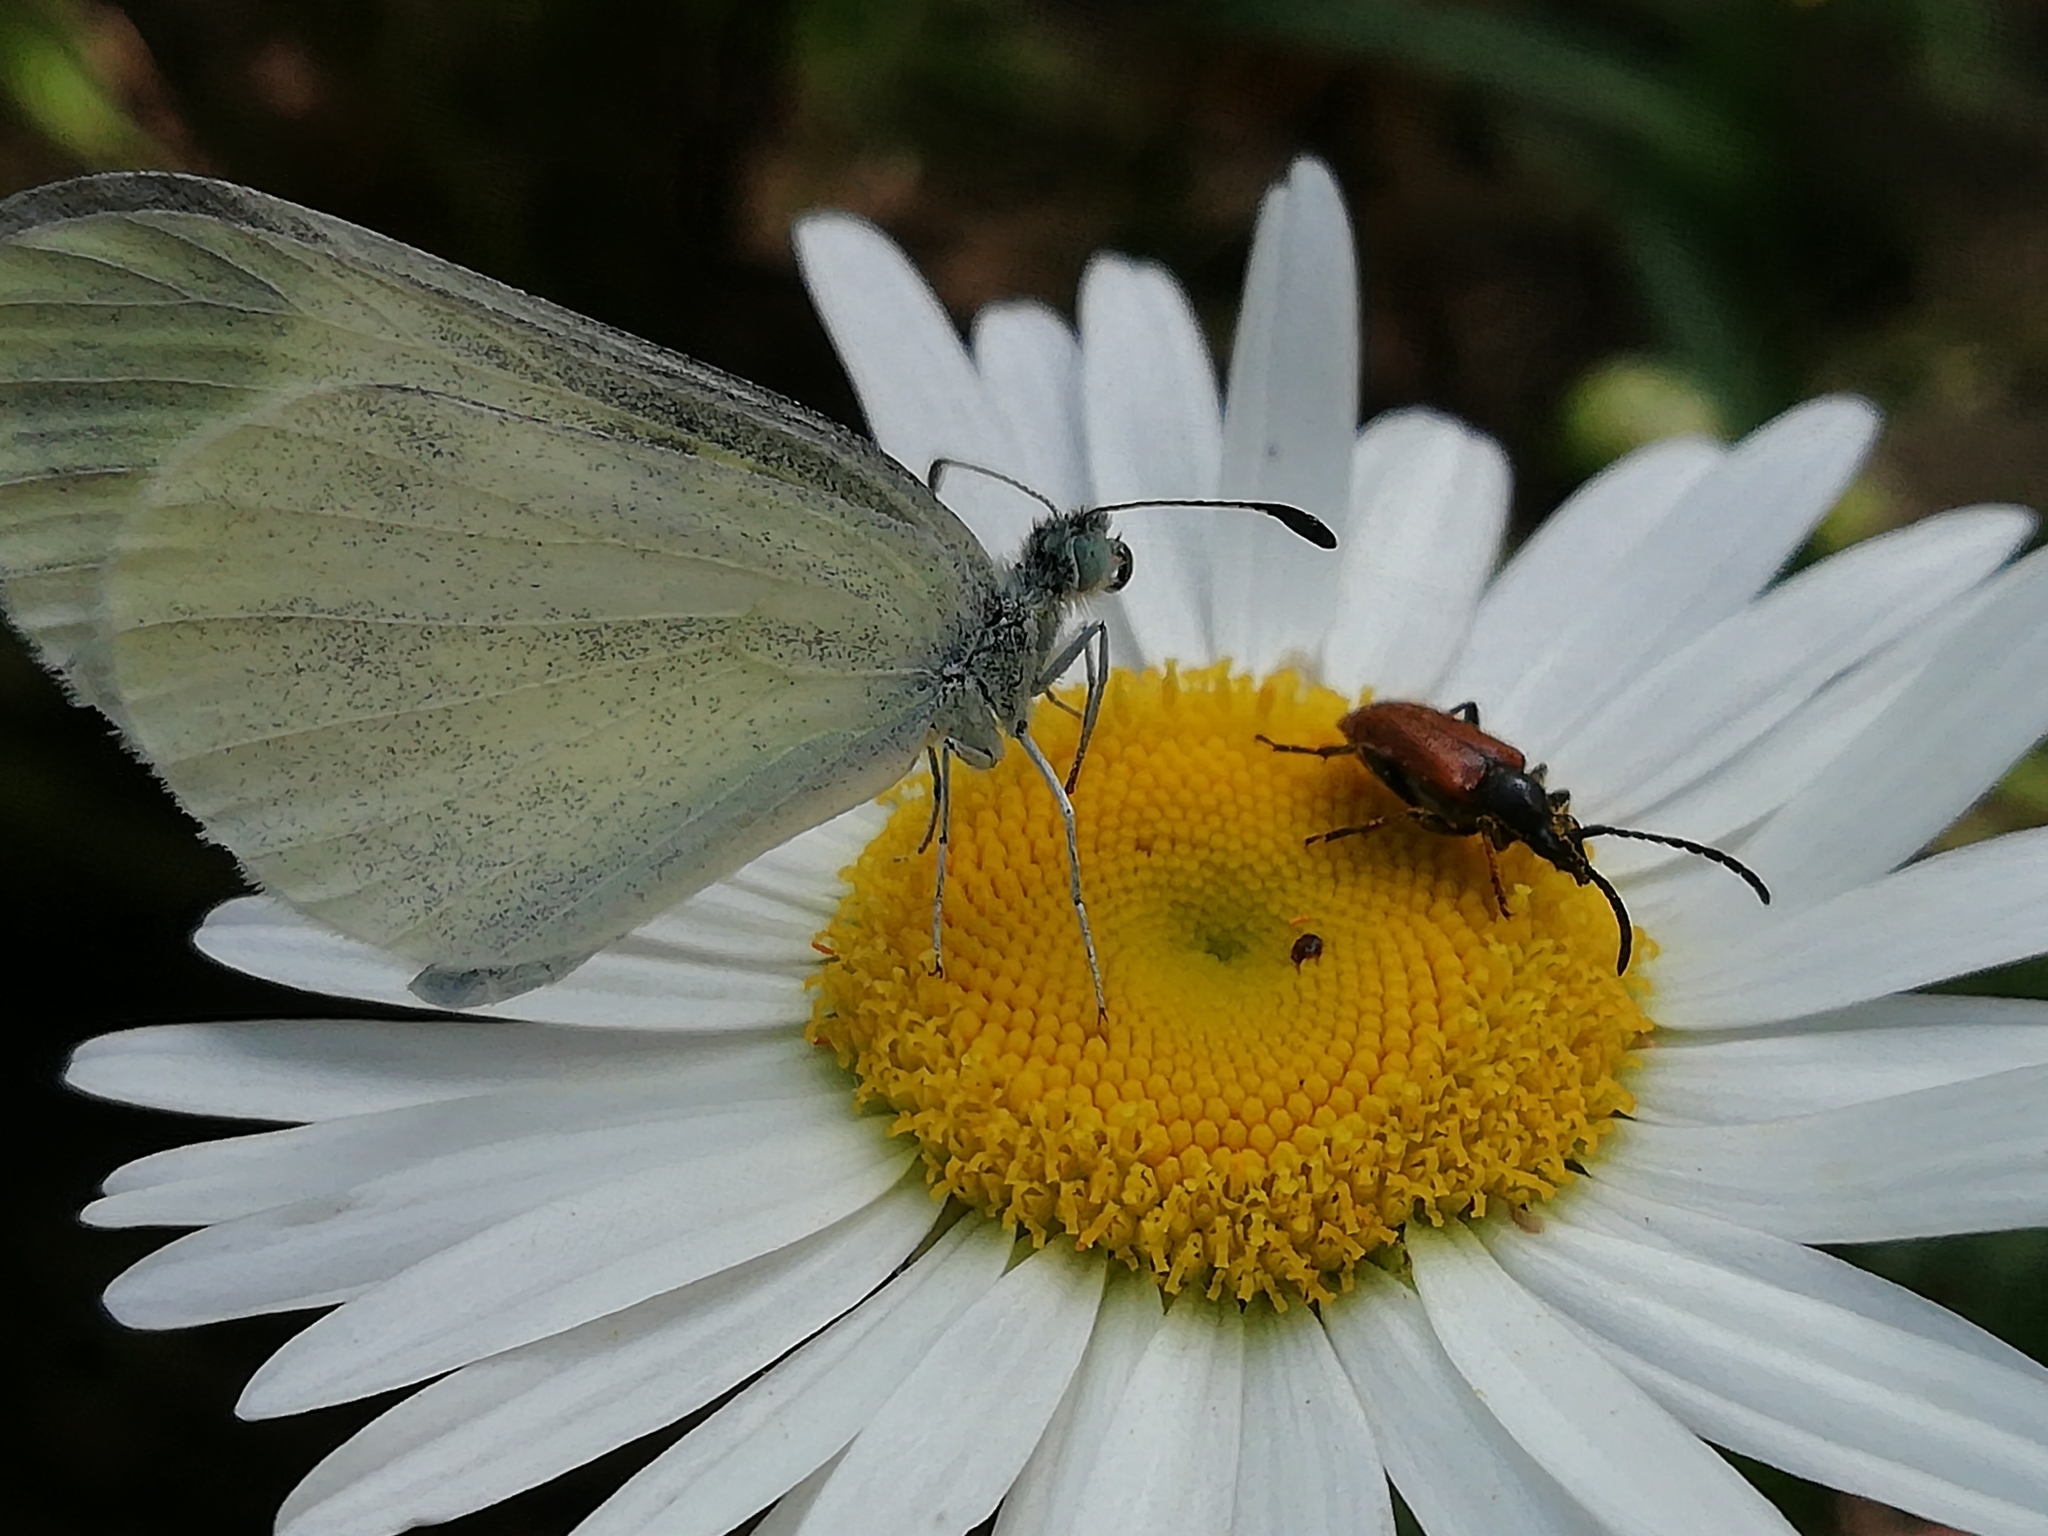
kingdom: Animalia
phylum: Arthropoda
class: Insecta
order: Coleoptera
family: Cerambycidae
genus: Pseudovadonia
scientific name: Pseudovadonia livida
